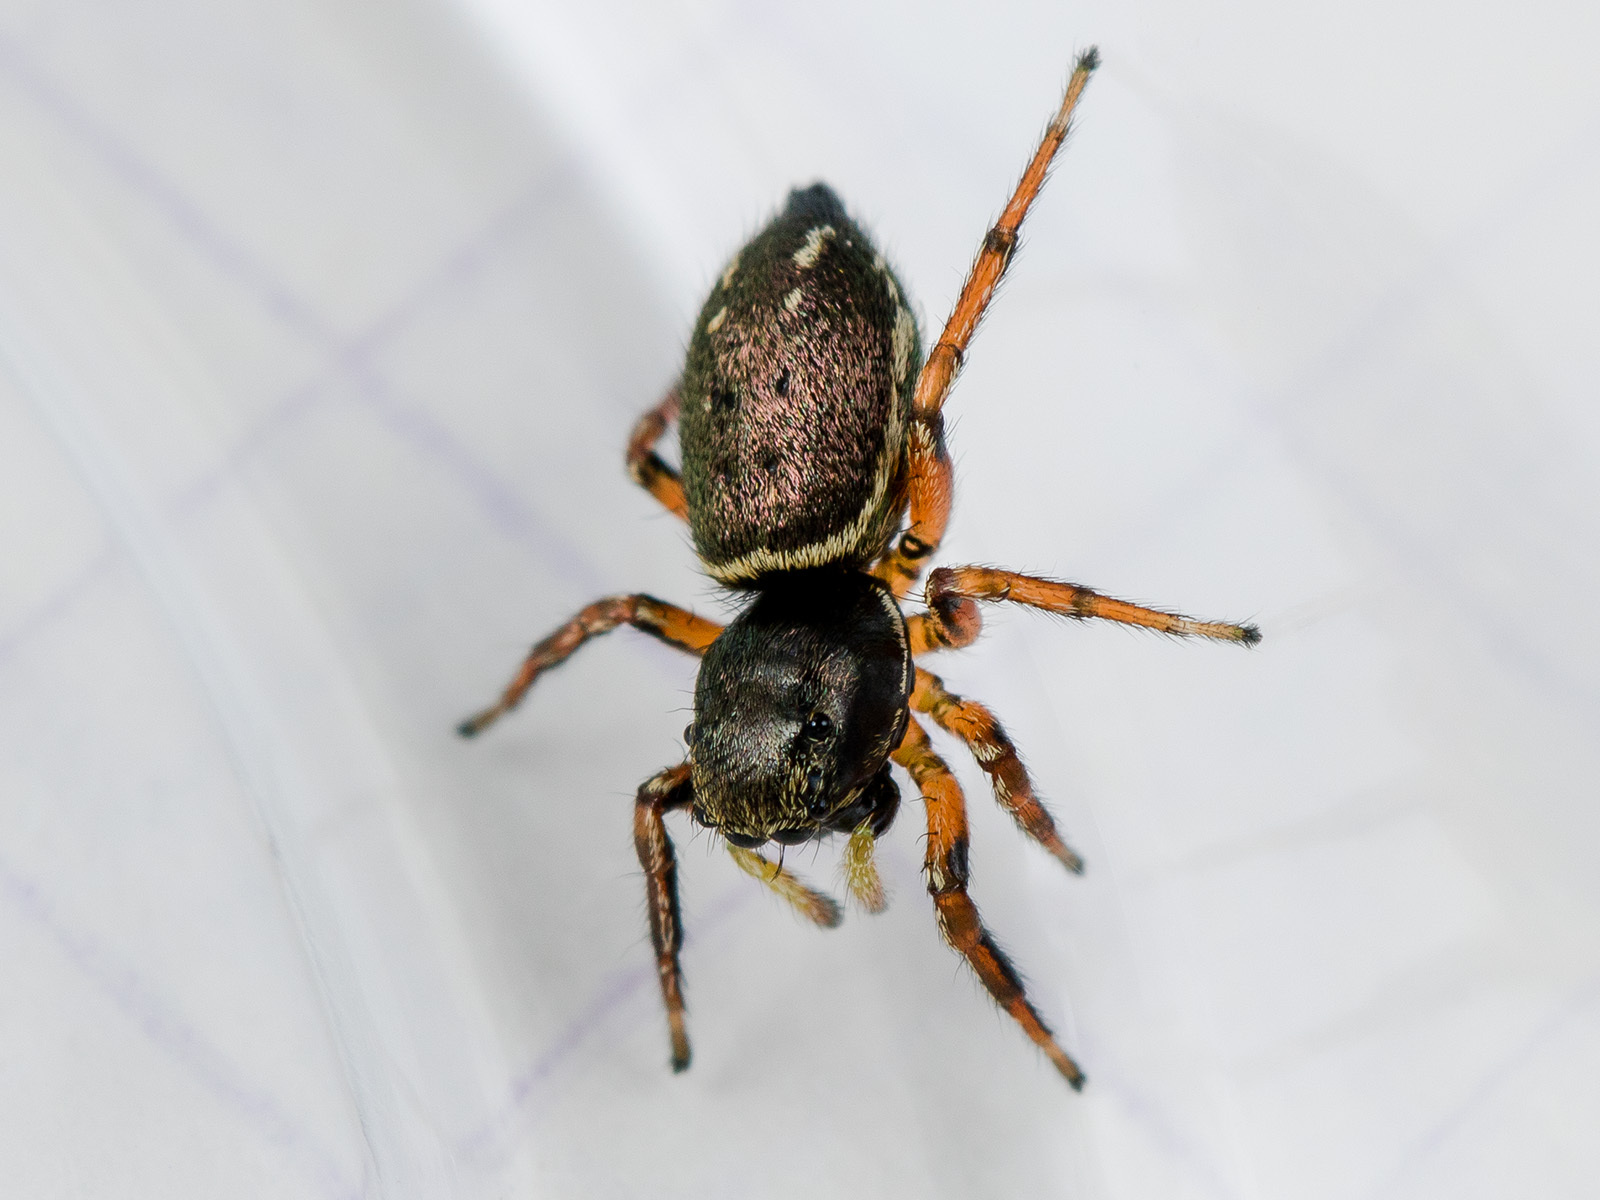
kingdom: Animalia
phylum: Arthropoda
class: Arachnida
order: Araneae
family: Salticidae
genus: Heliophanus
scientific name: Heliophanus wesolowskae
